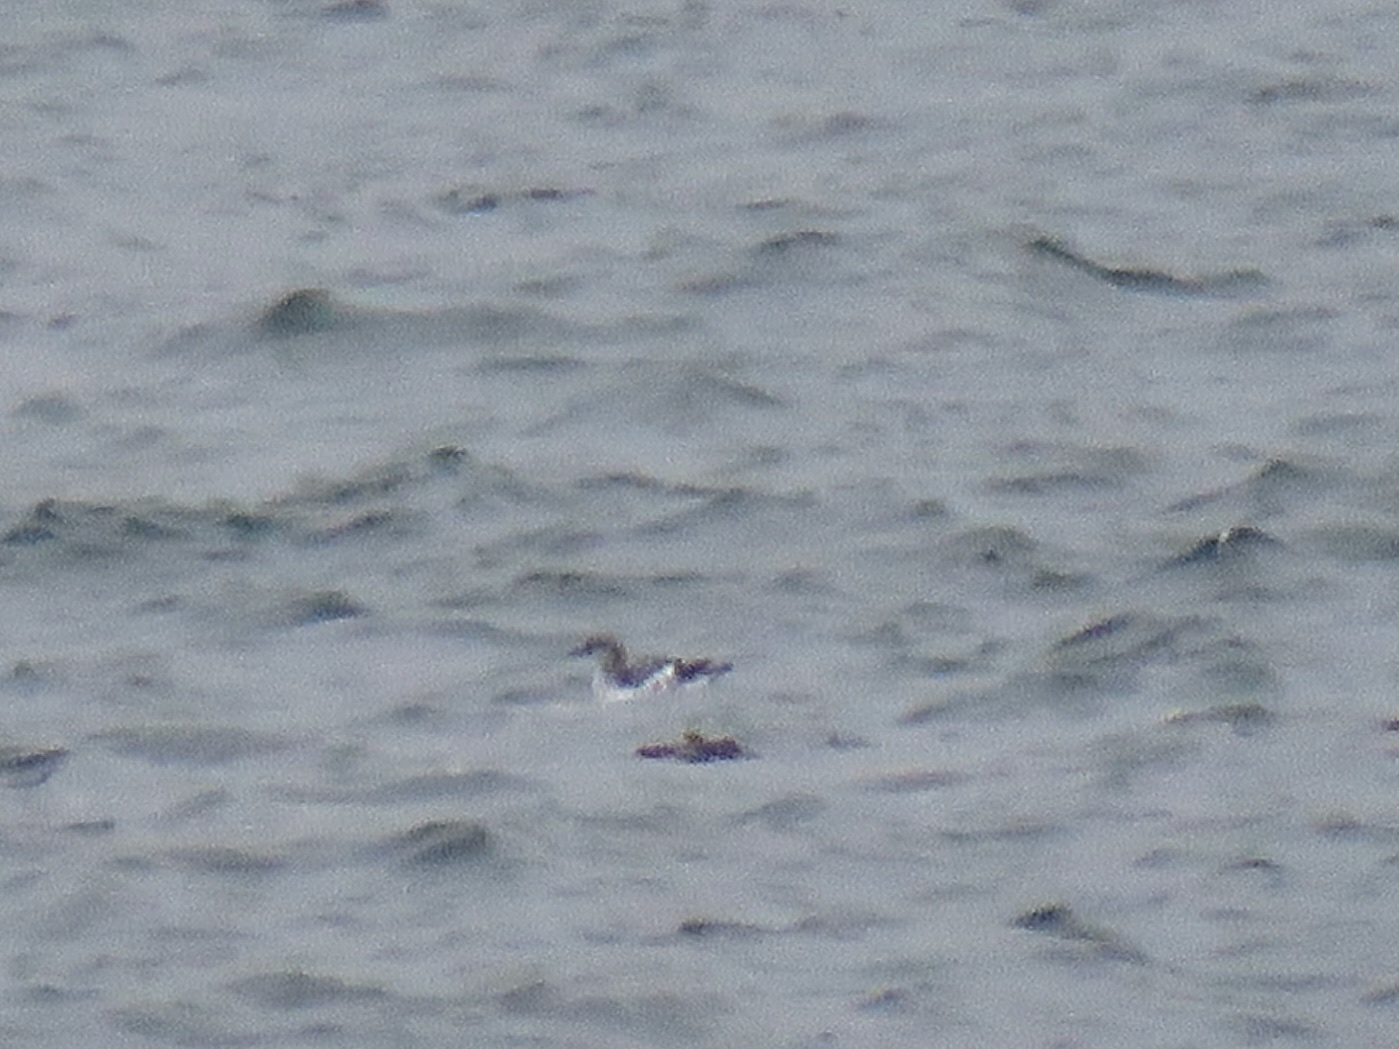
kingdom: Animalia
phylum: Chordata
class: Aves
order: Charadriiformes
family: Alcidae
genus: Cepphus
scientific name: Cepphus columba
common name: Pigeon guillemot
